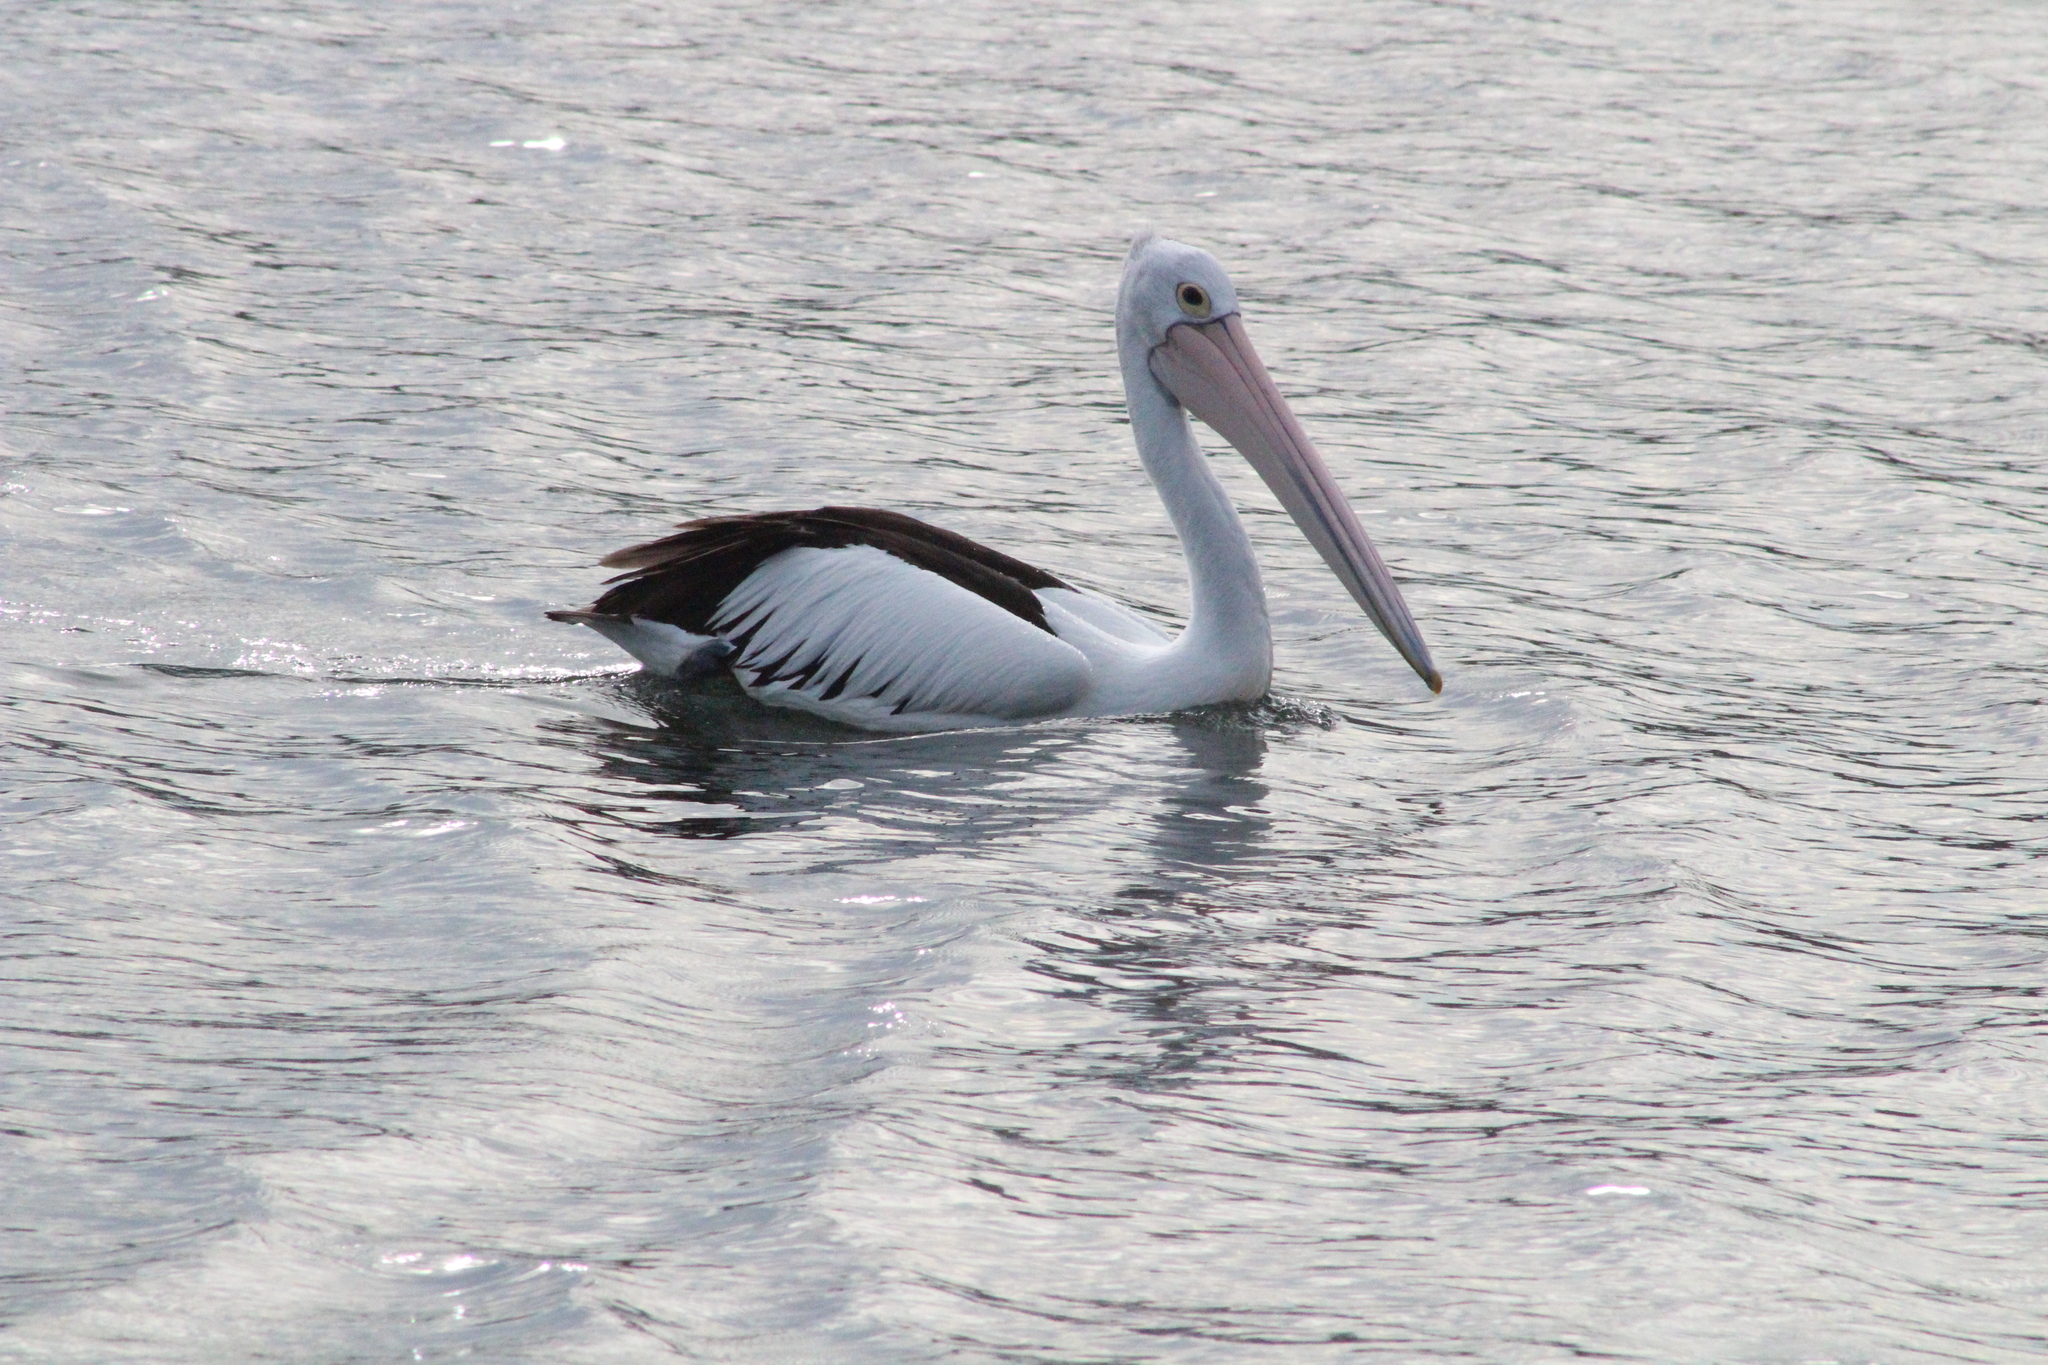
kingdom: Animalia
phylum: Chordata
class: Aves
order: Pelecaniformes
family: Pelecanidae
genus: Pelecanus
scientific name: Pelecanus conspicillatus
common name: Australian pelican
